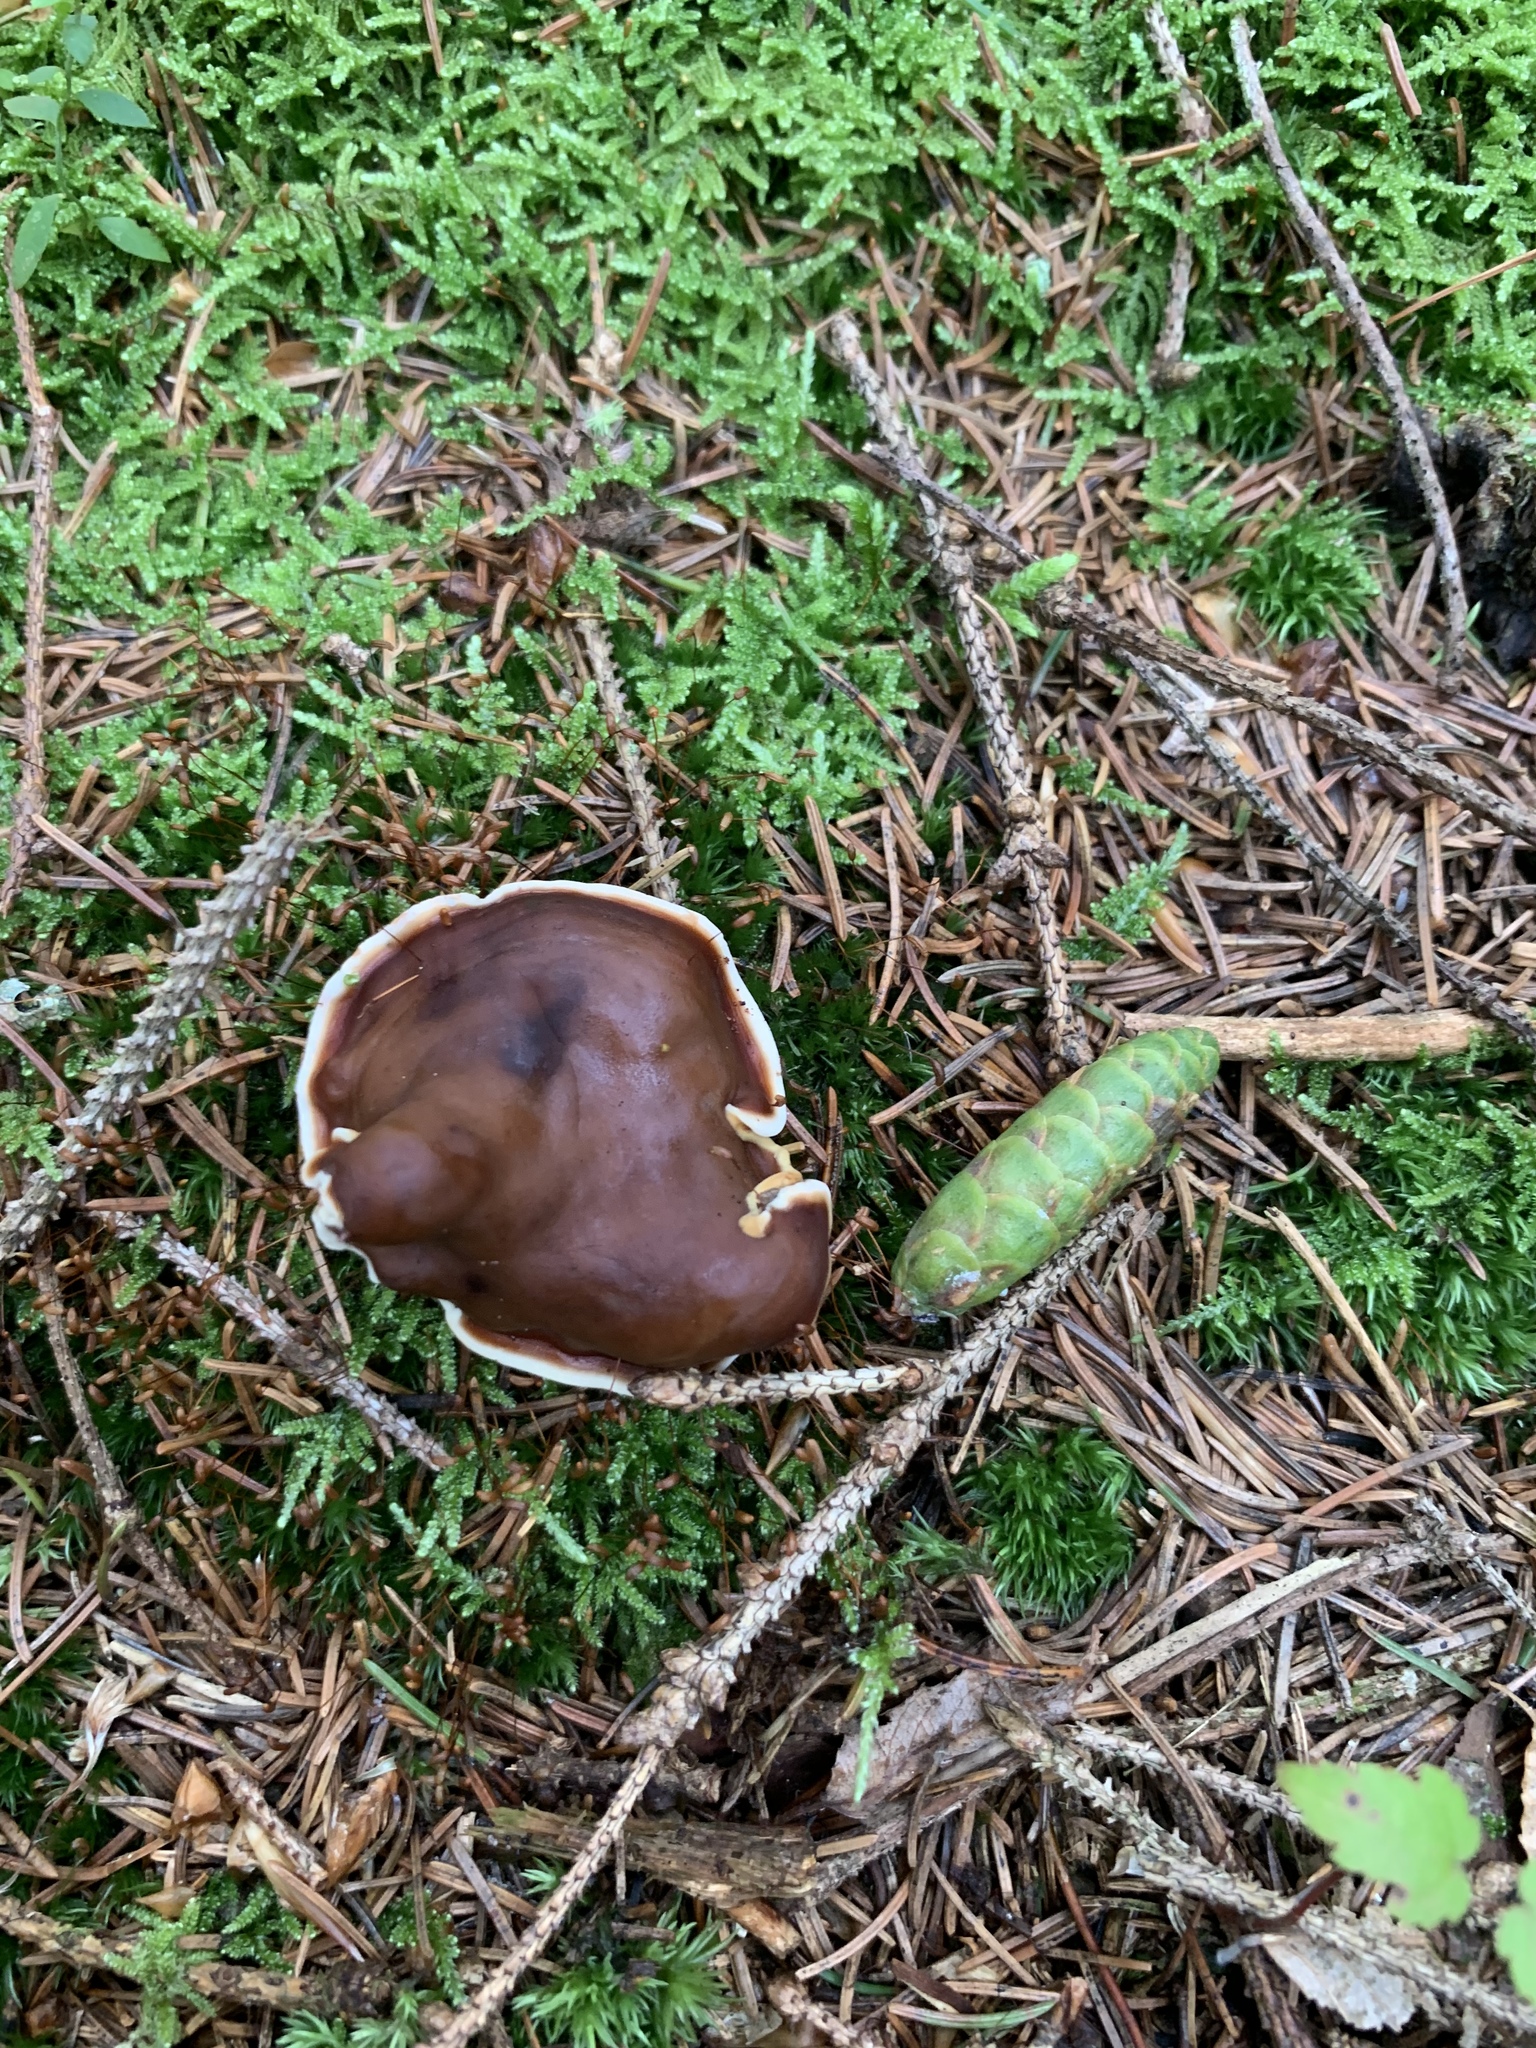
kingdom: Fungi
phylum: Ascomycota
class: Pezizomycetes
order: Pezizales
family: Rhizinaceae
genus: Rhizina
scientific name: Rhizina undulata
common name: Pine firefungus
